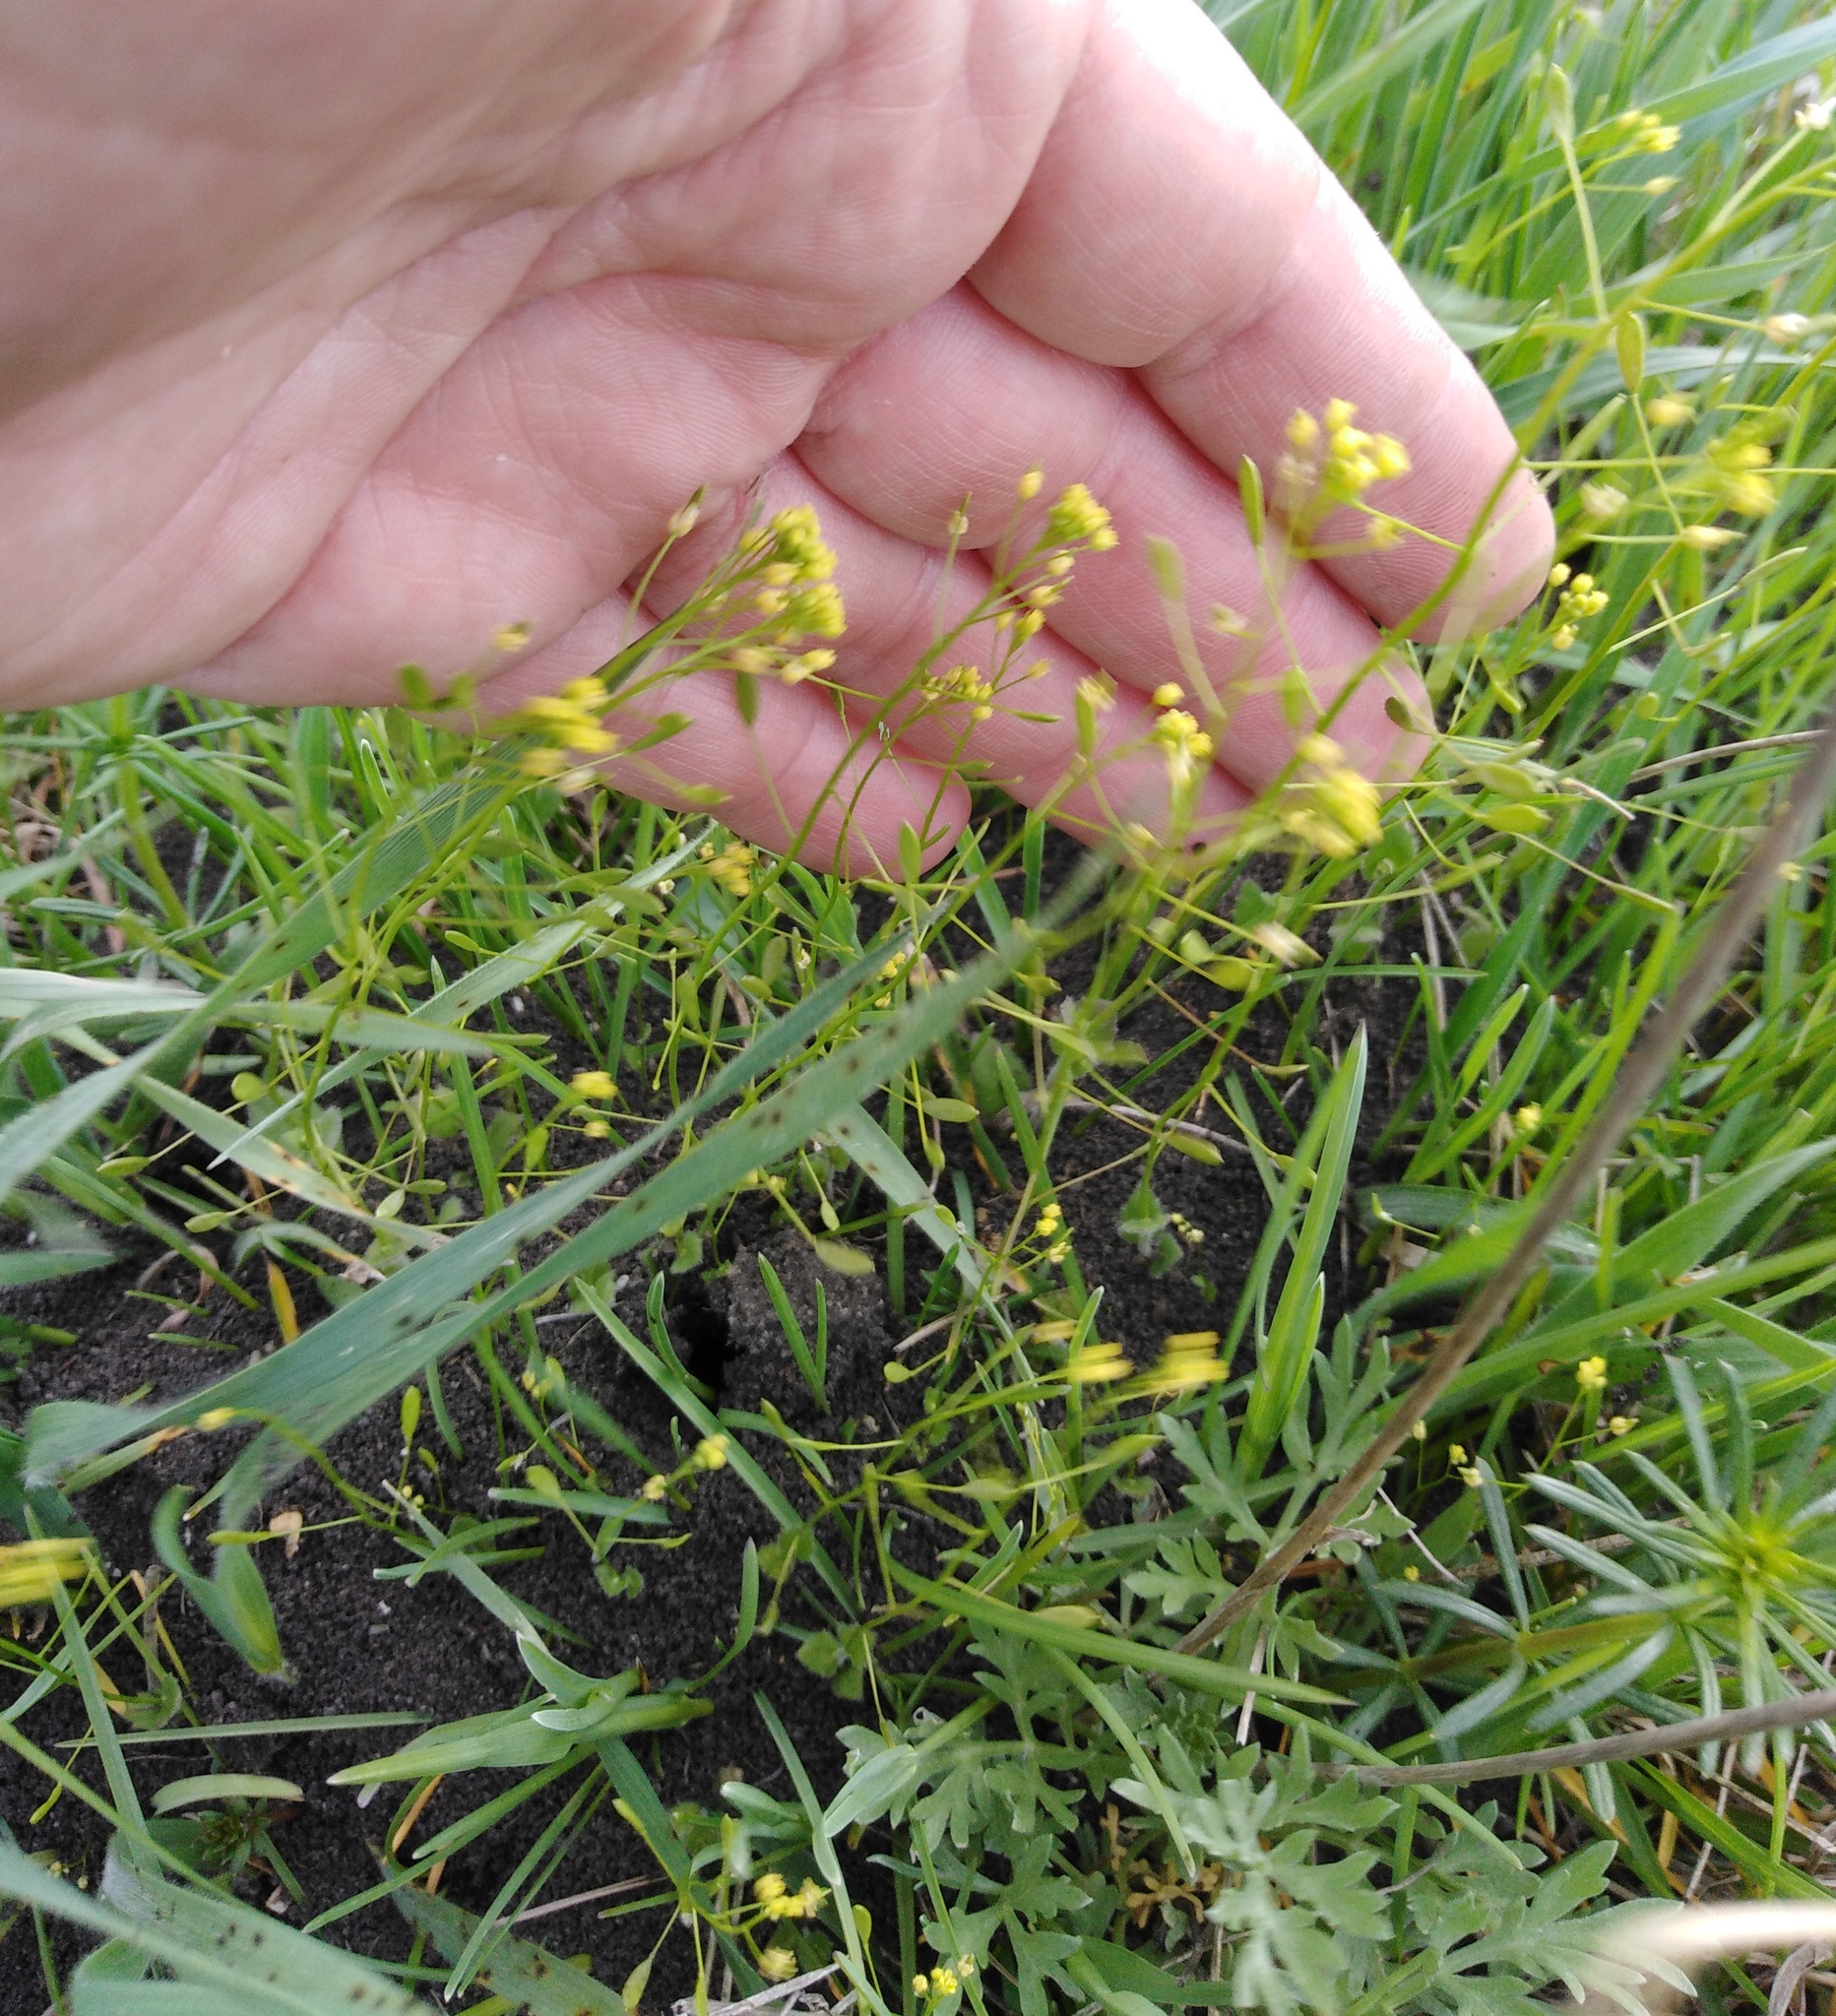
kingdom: Plantae
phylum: Tracheophyta
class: Magnoliopsida
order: Brassicales
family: Brassicaceae
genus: Draba
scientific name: Draba nemorosa
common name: Wood whitlow-grass
